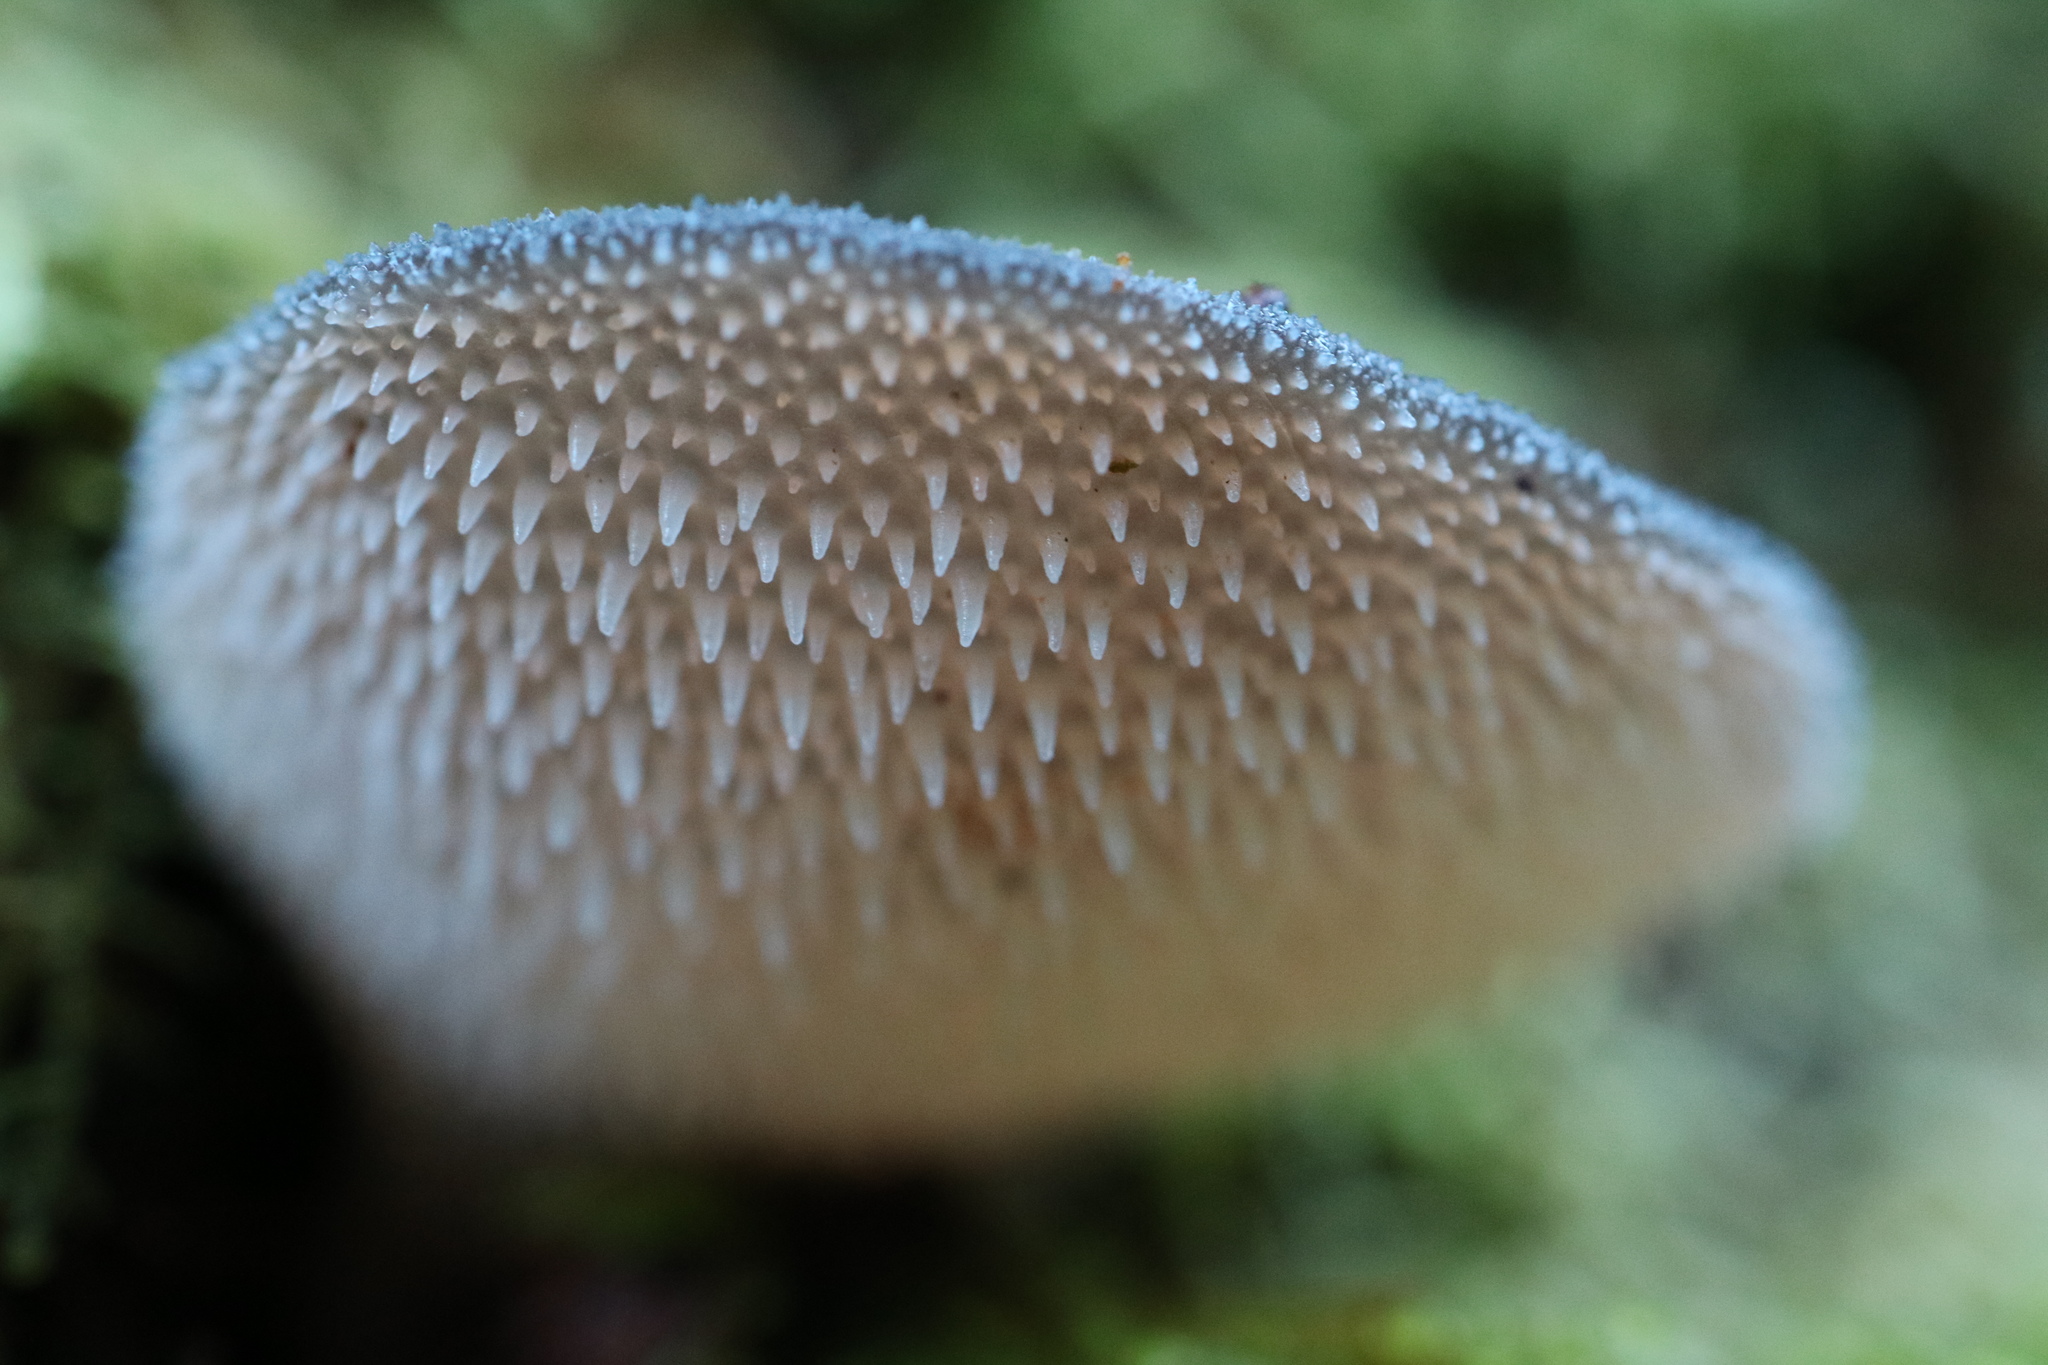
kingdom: Fungi
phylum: Basidiomycota
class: Agaricomycetes
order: Auriculariales
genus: Pseudohydnum
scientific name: Pseudohydnum gelatinosum
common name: Jelly tongue
